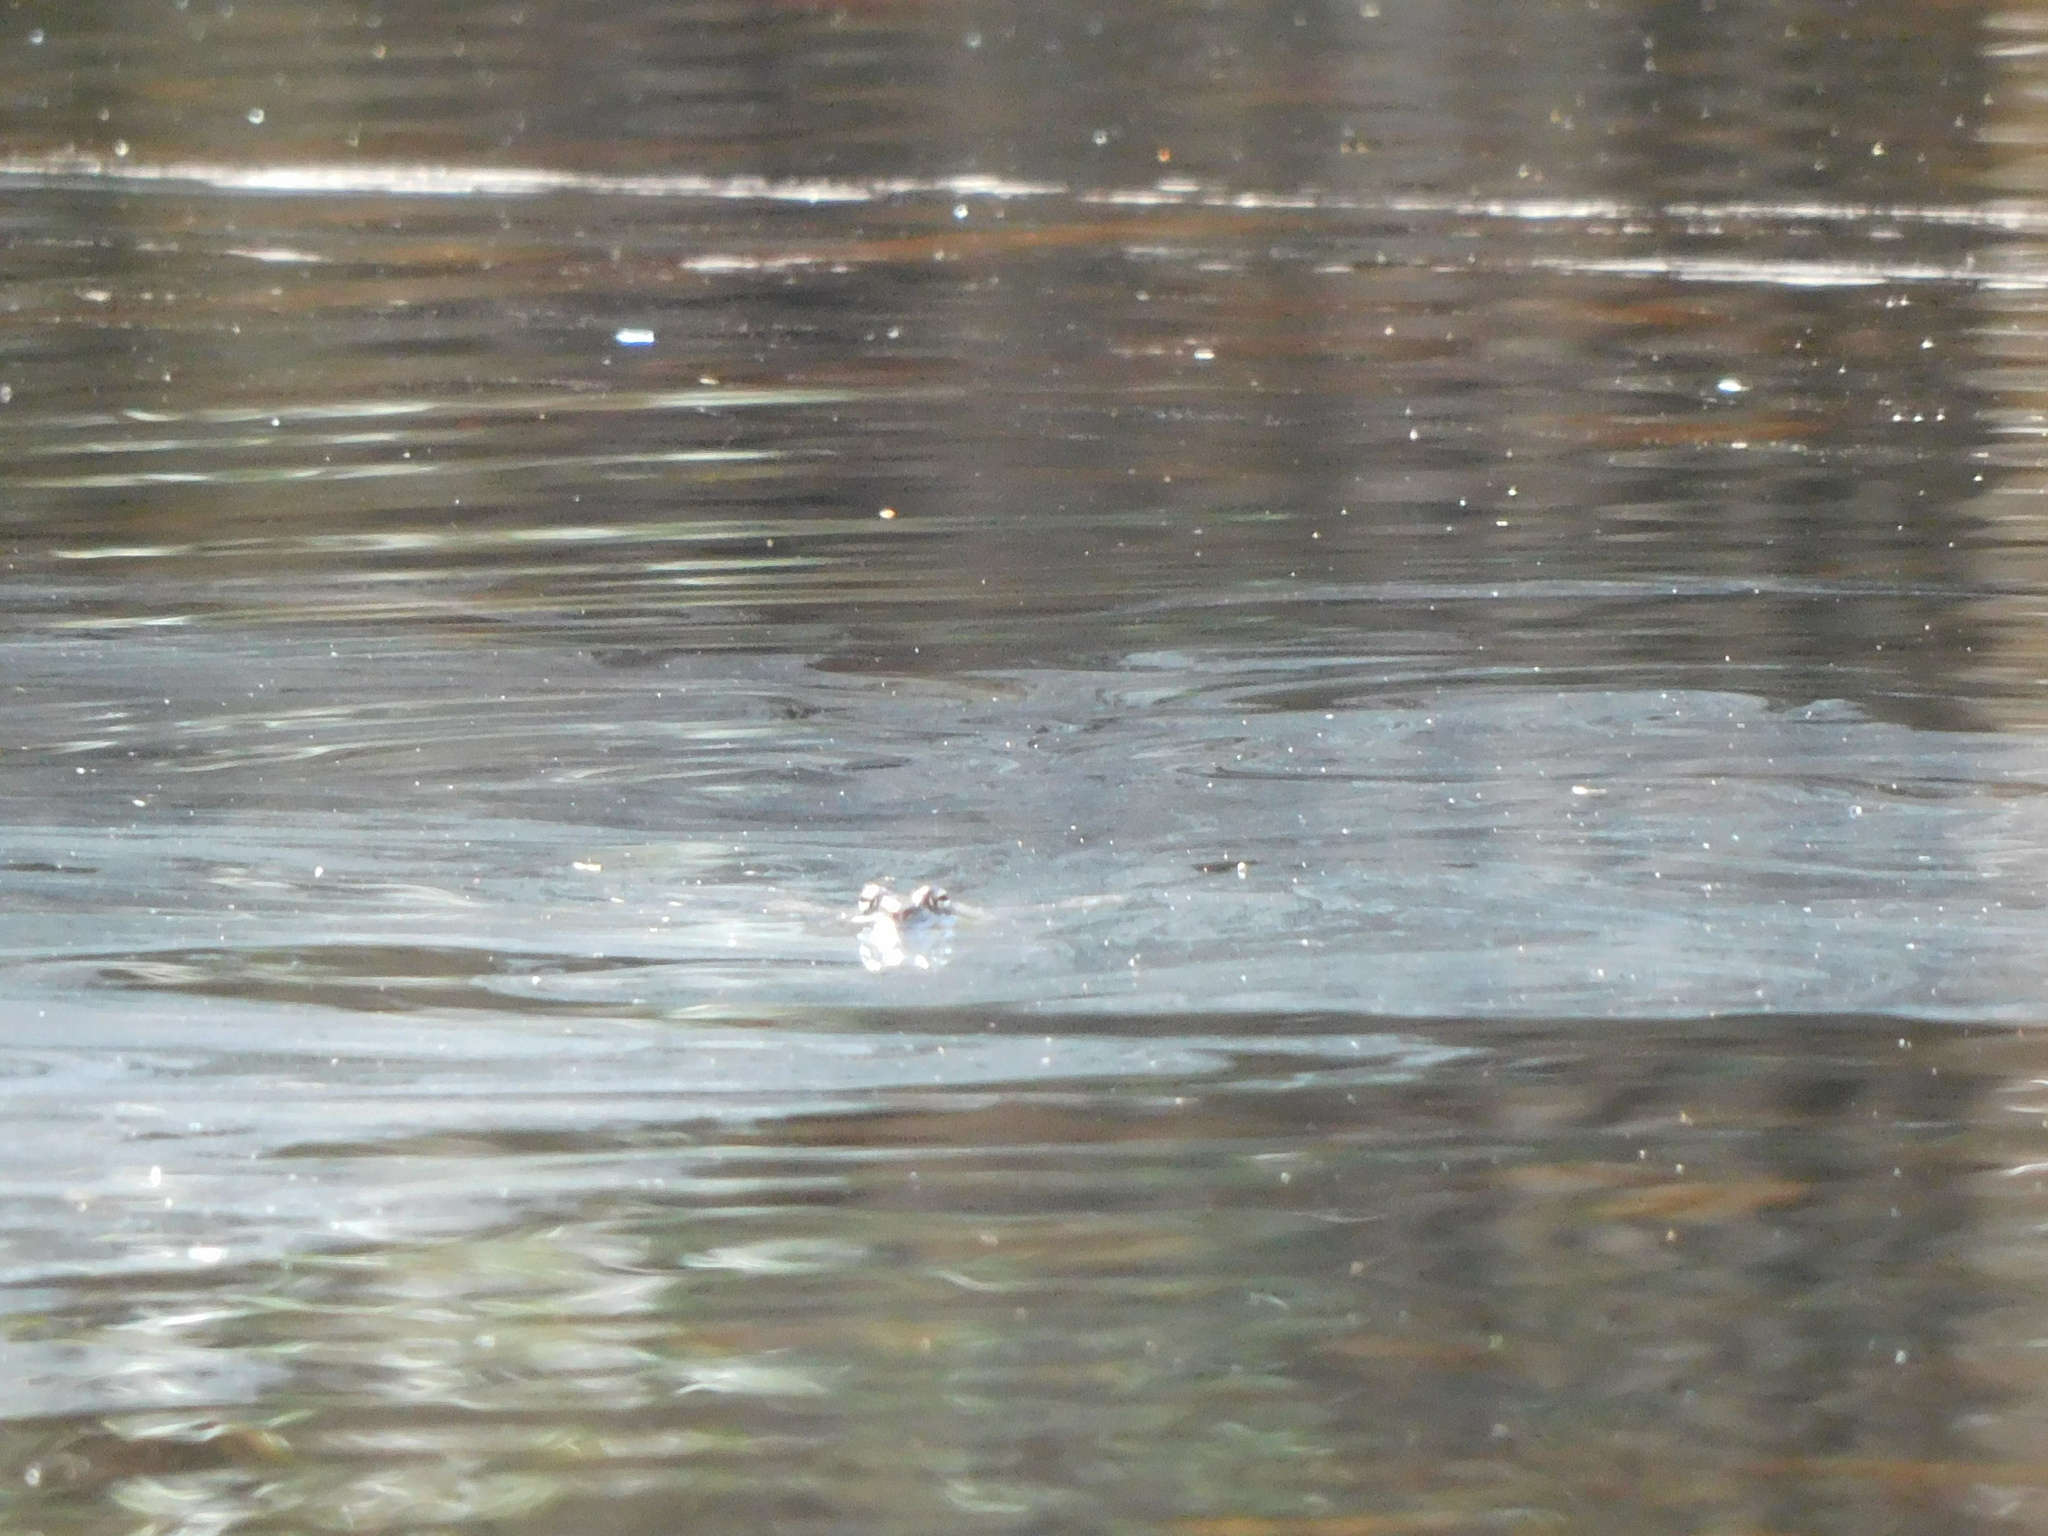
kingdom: Animalia
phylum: Chordata
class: Amphibia
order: Anura
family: Ranidae
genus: Lithobates
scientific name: Lithobates sylvaticus
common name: Wood frog
